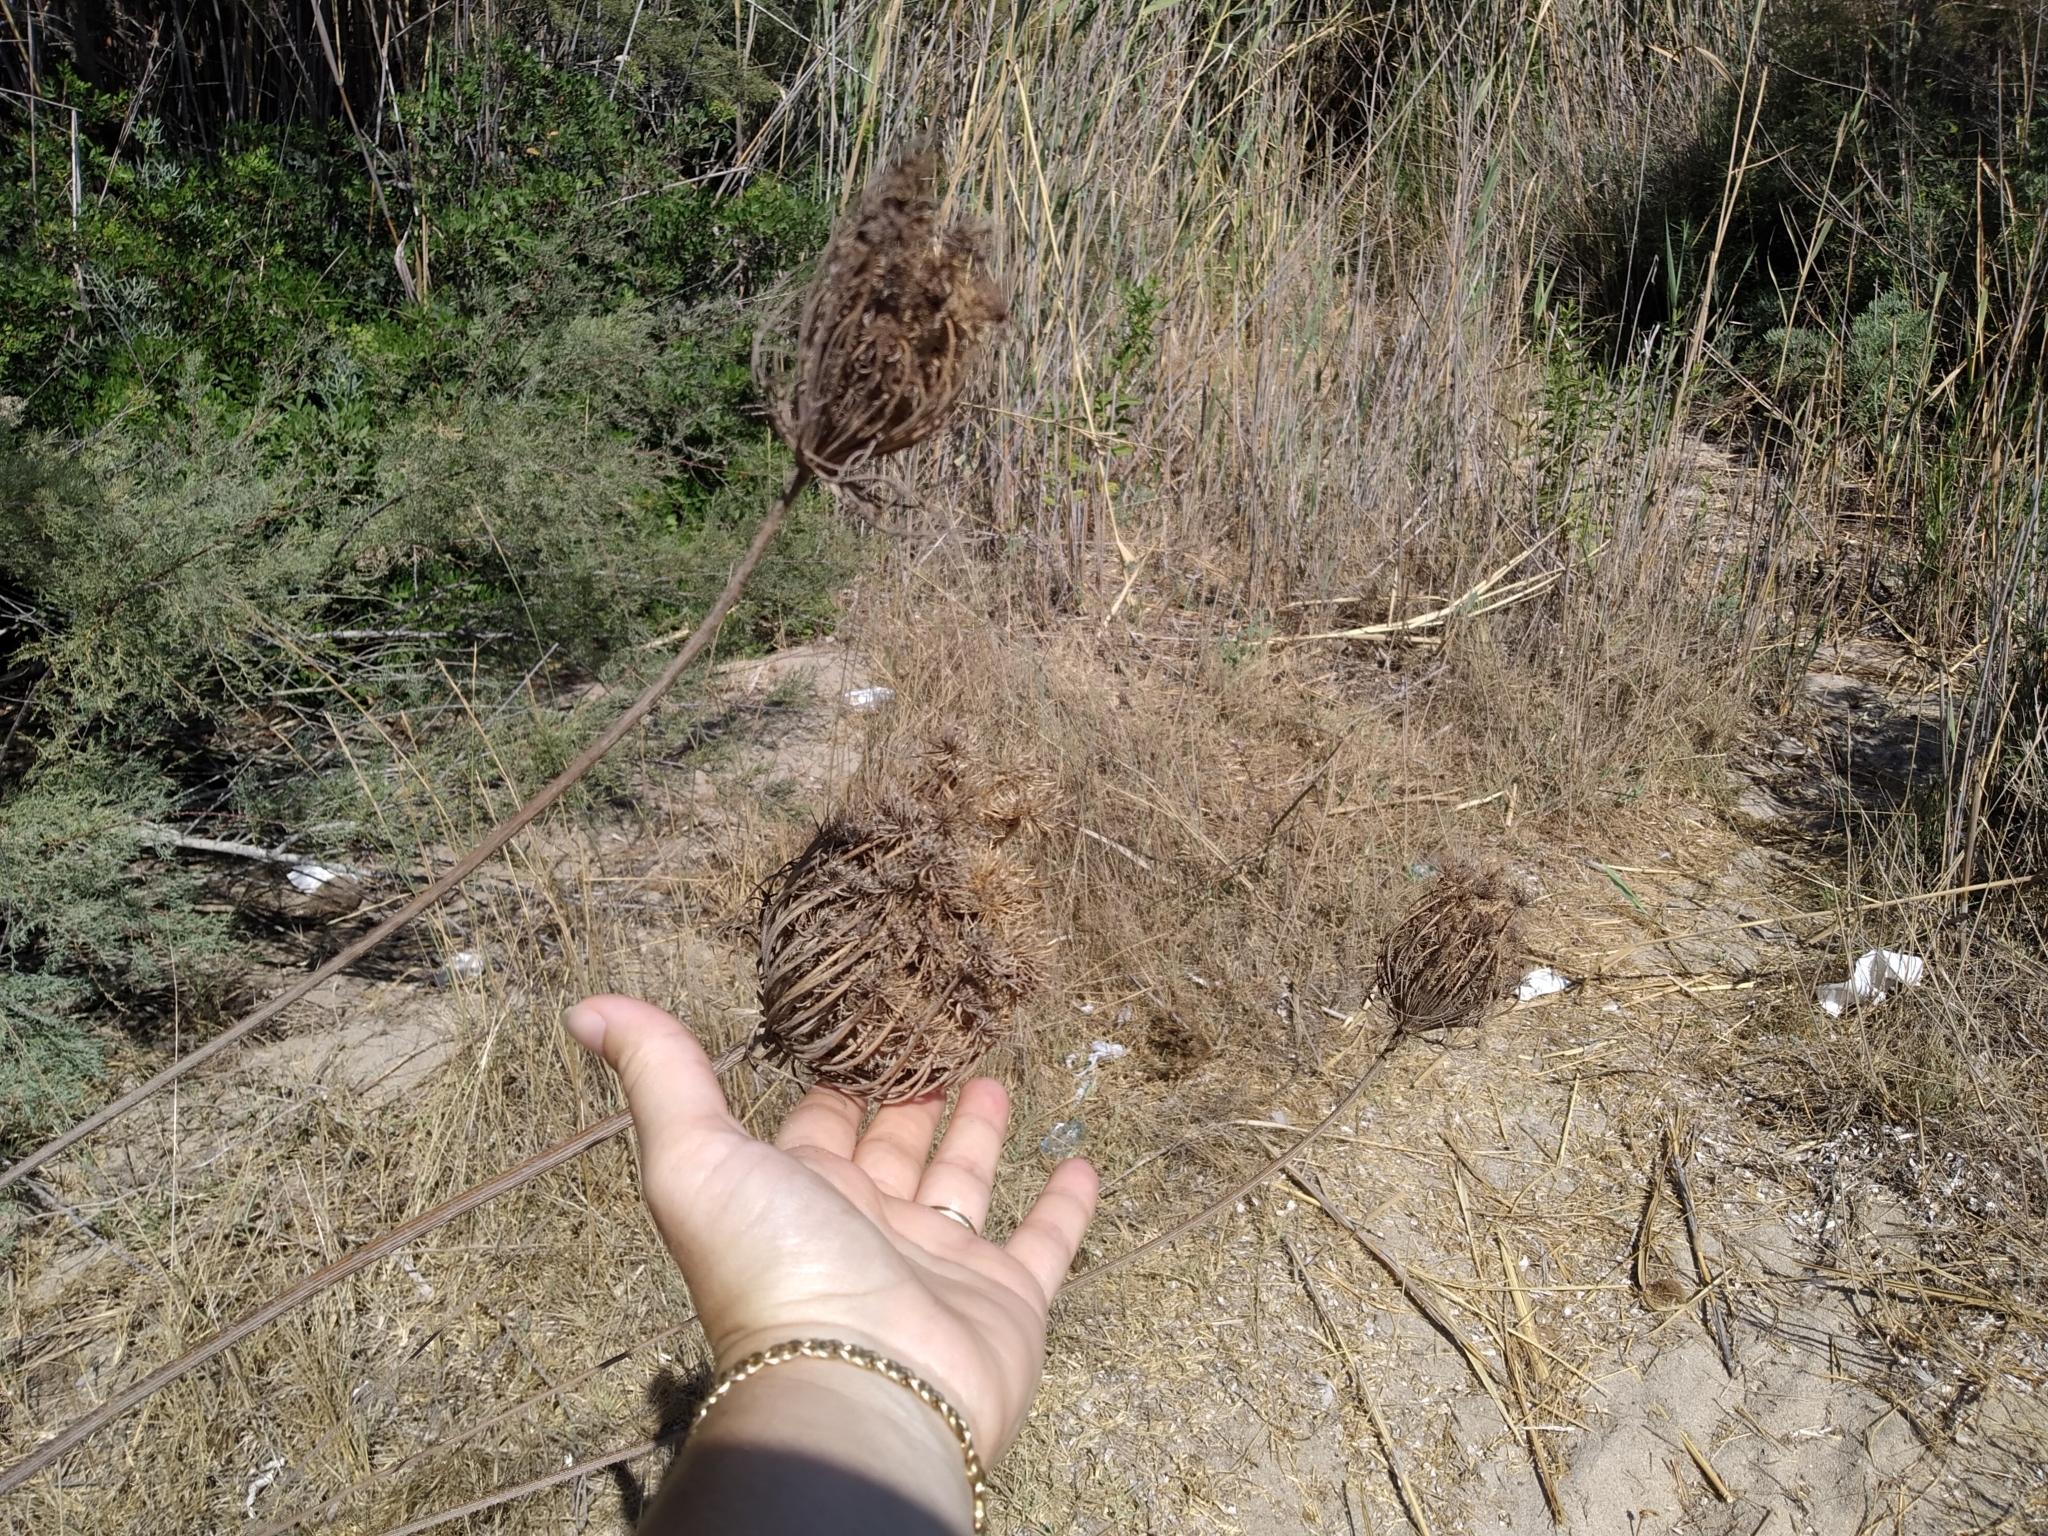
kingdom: Plantae
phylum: Tracheophyta
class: Magnoliopsida
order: Apiales
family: Apiaceae
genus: Daucus
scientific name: Daucus carota
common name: Wild carrot
